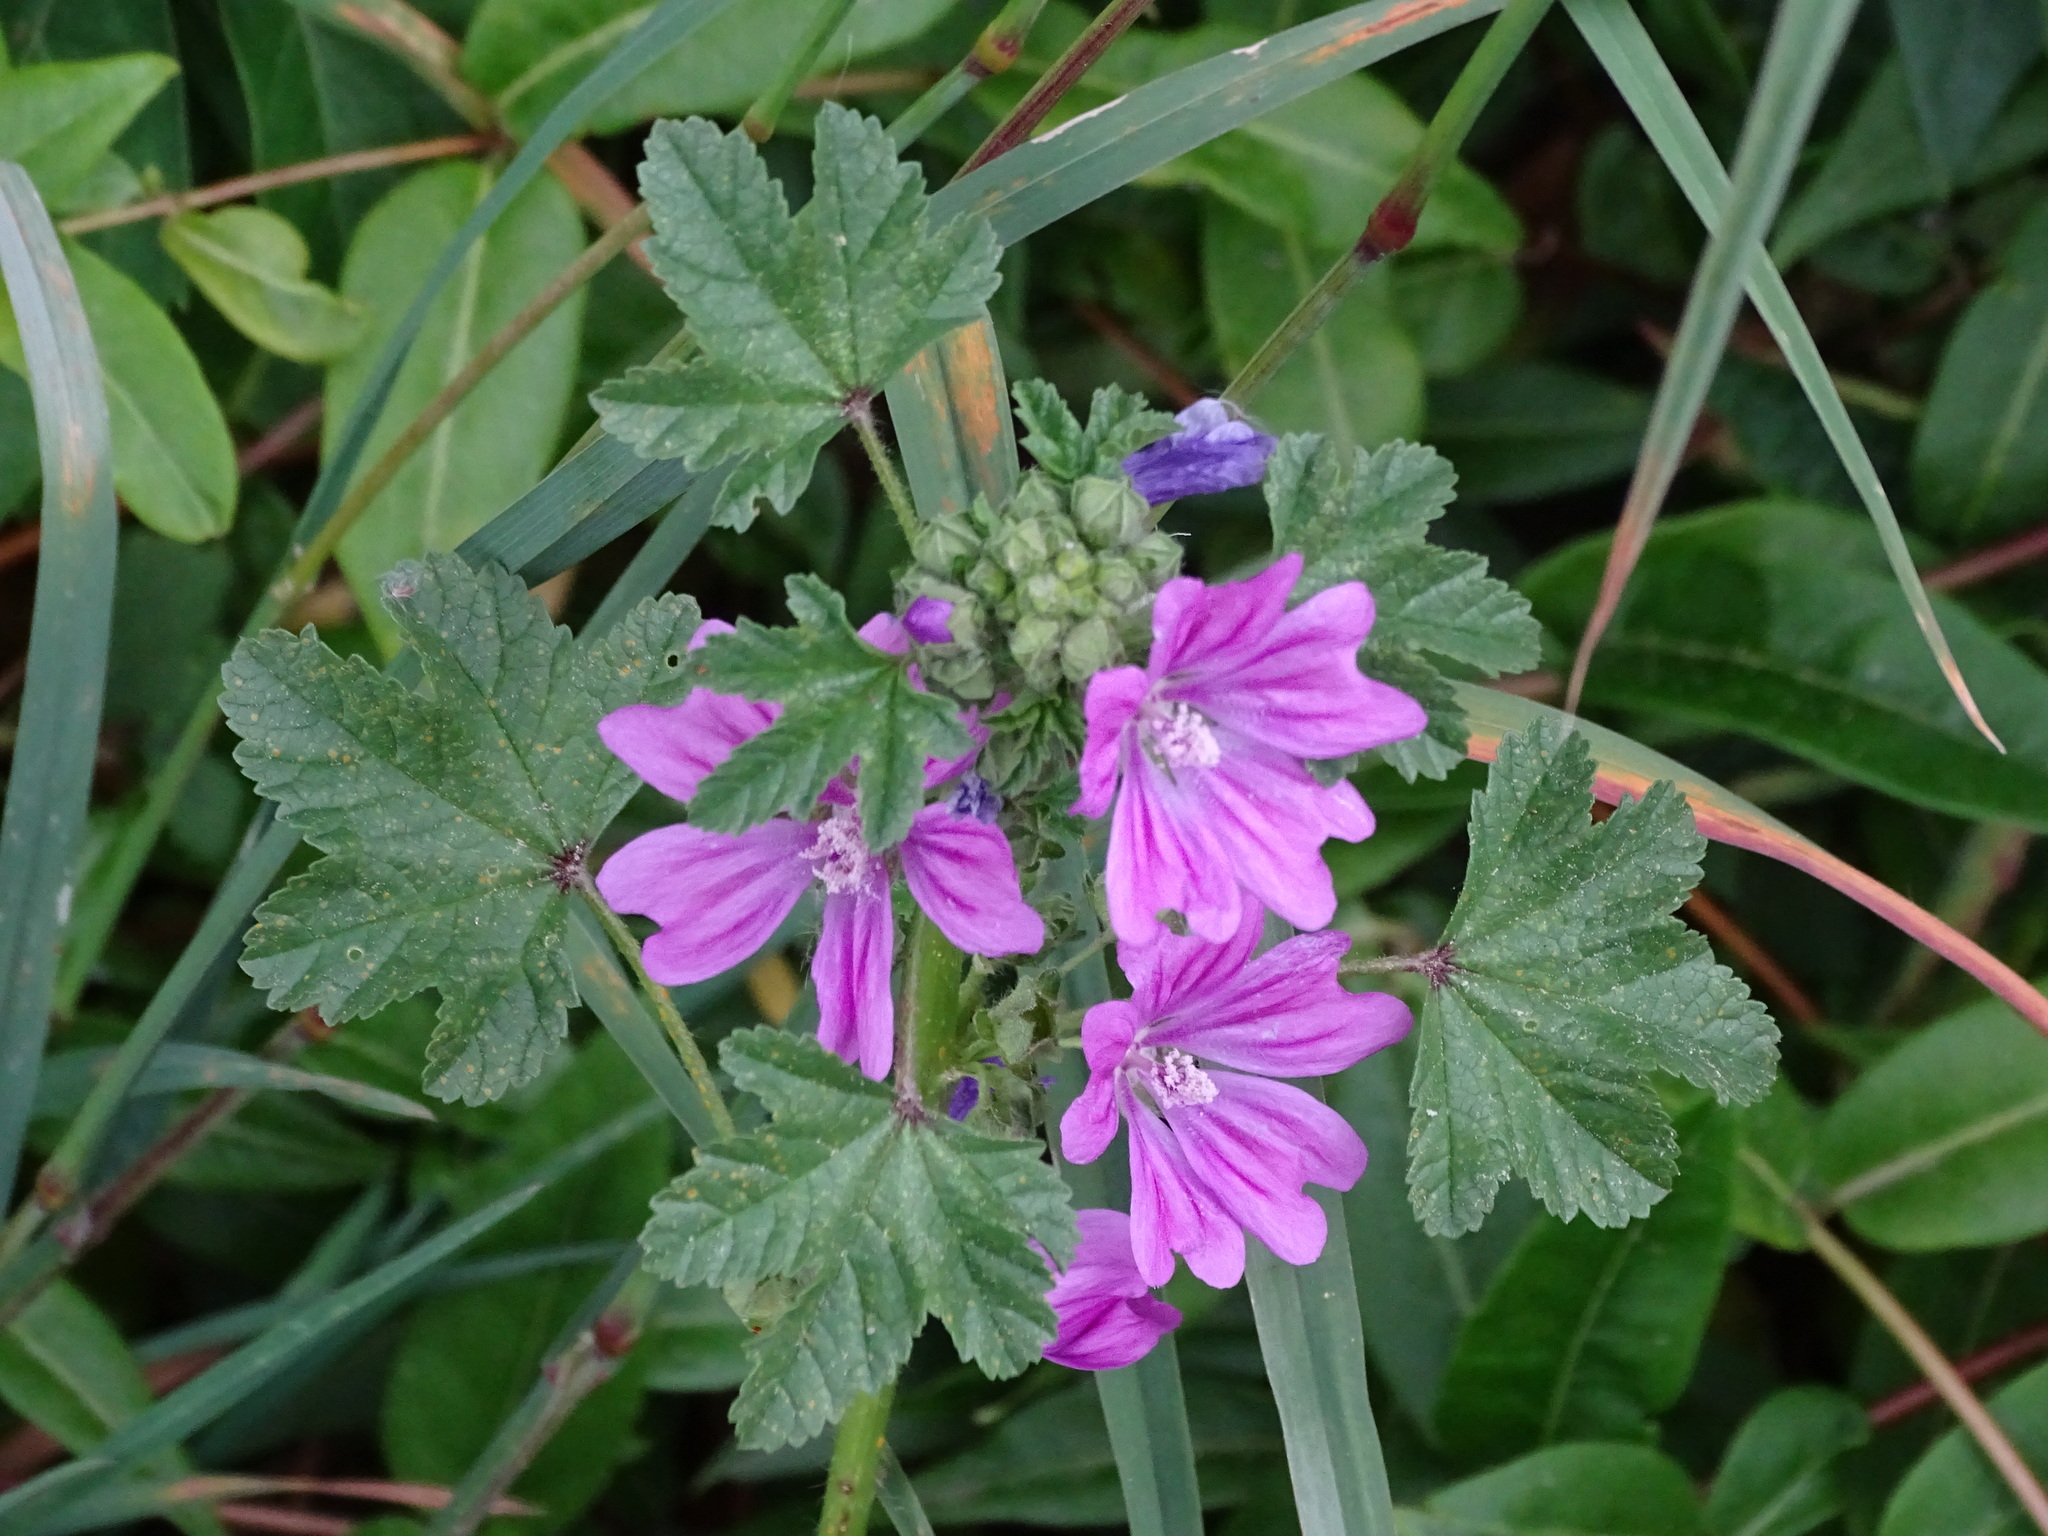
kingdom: Plantae
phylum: Tracheophyta
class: Magnoliopsida
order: Malvales
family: Malvaceae
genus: Malva
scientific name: Malva sylvestris
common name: Common mallow
